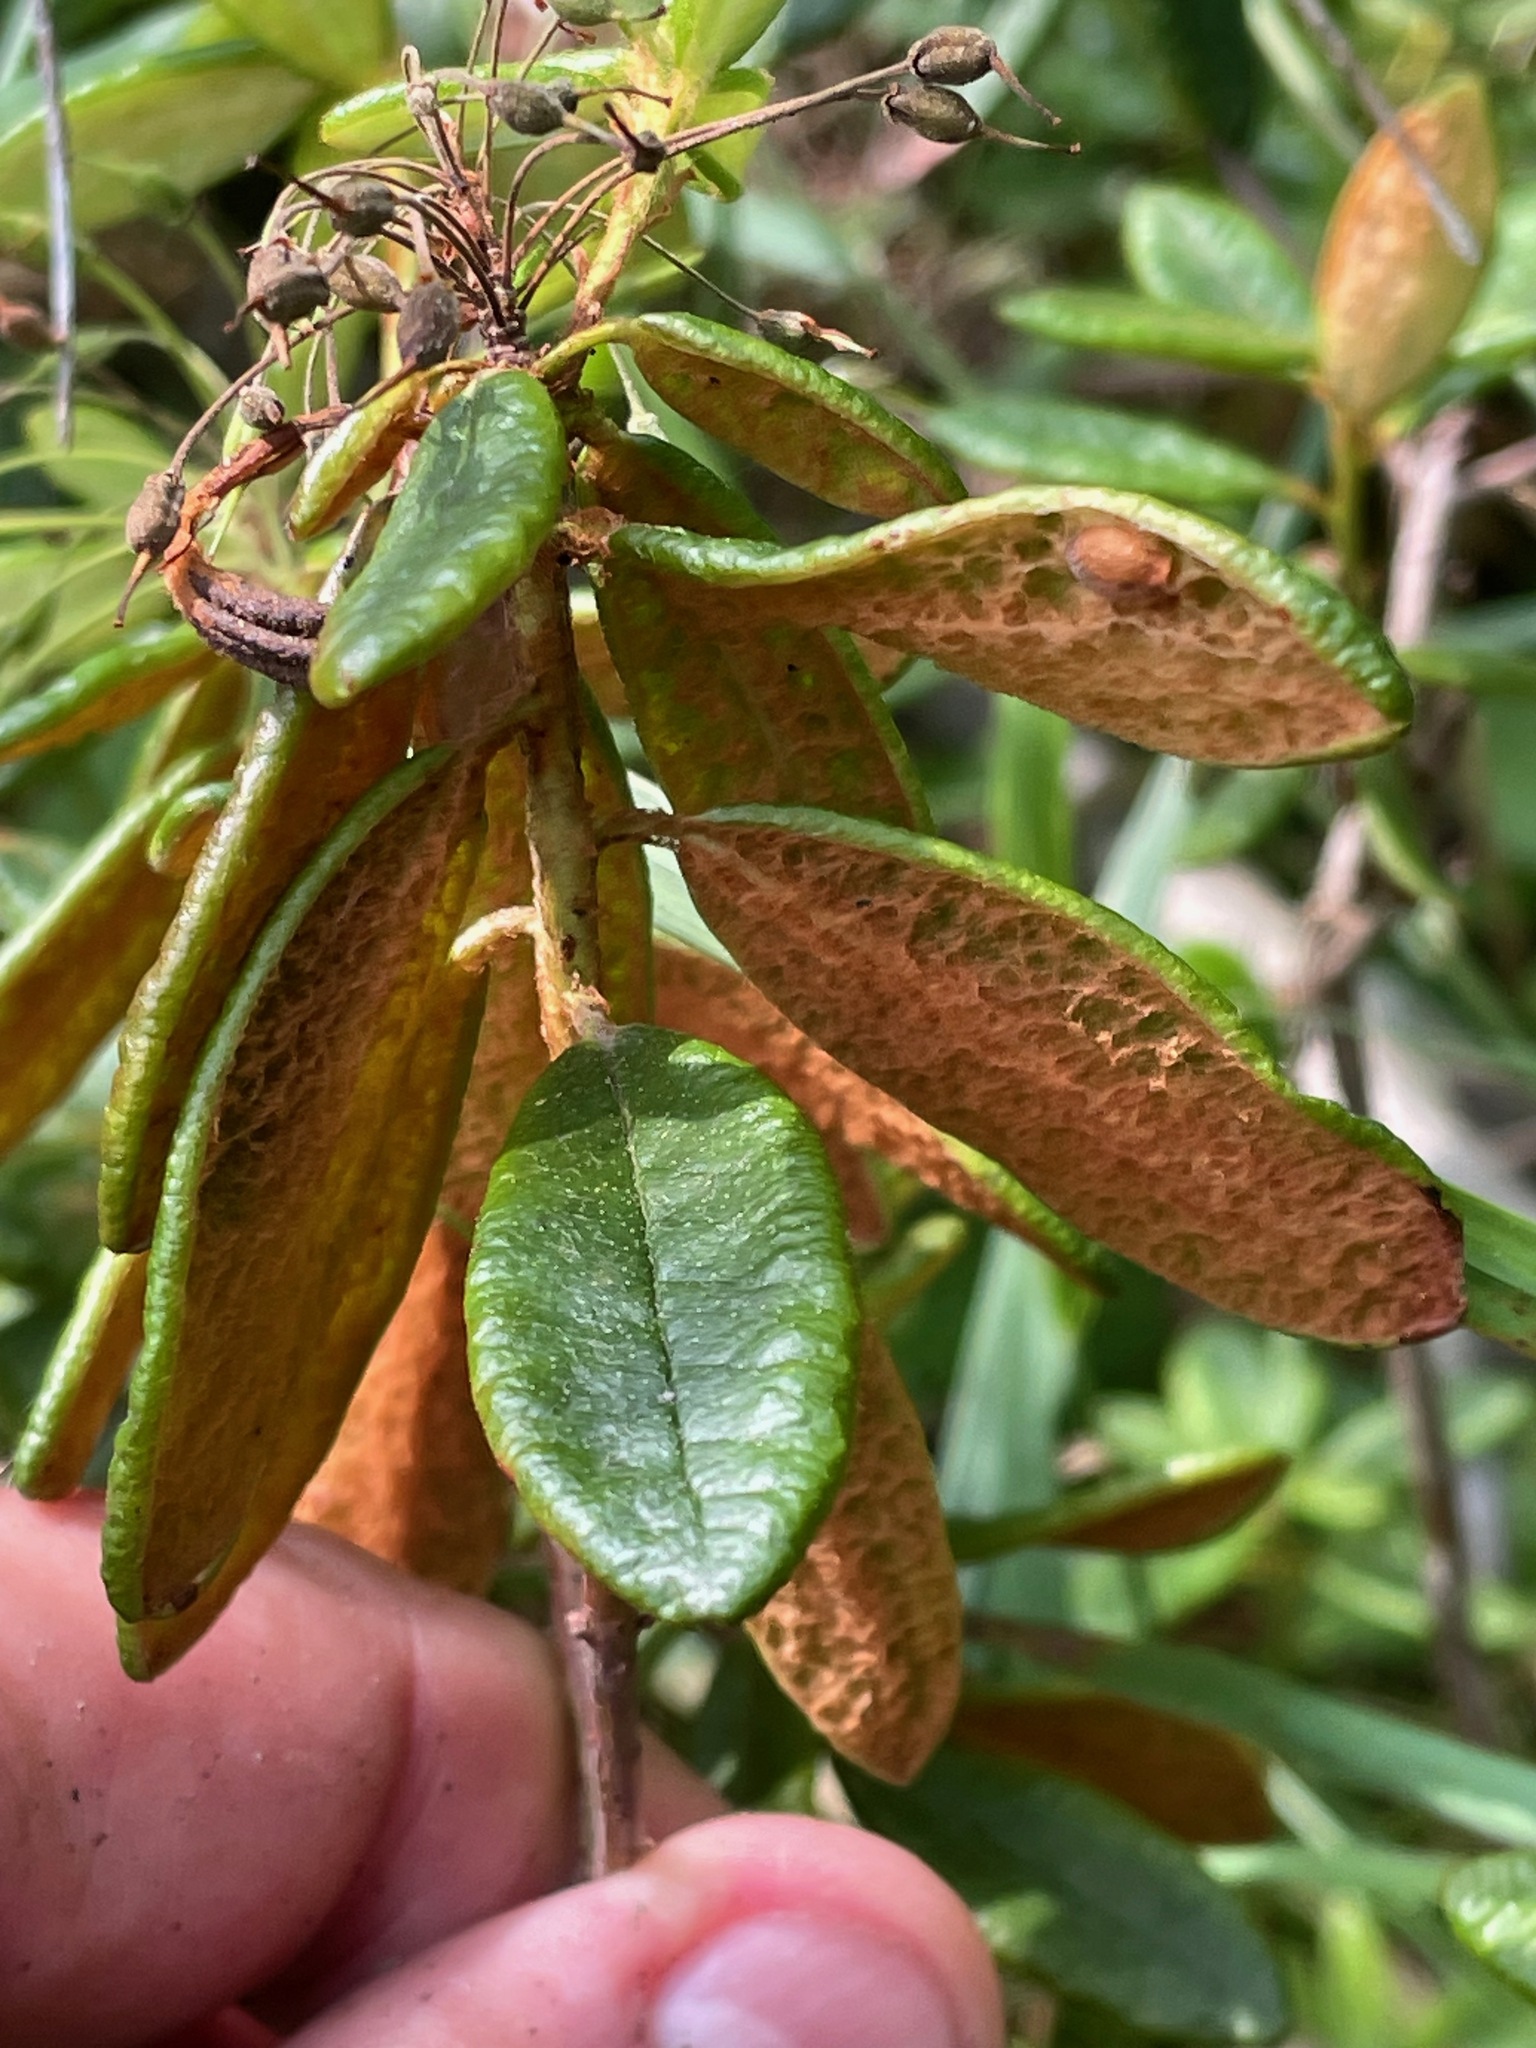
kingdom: Plantae
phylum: Tracheophyta
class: Magnoliopsida
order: Ericales
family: Ericaceae
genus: Rhododendron
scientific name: Rhododendron groenlandicum
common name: Bog labrador tea
